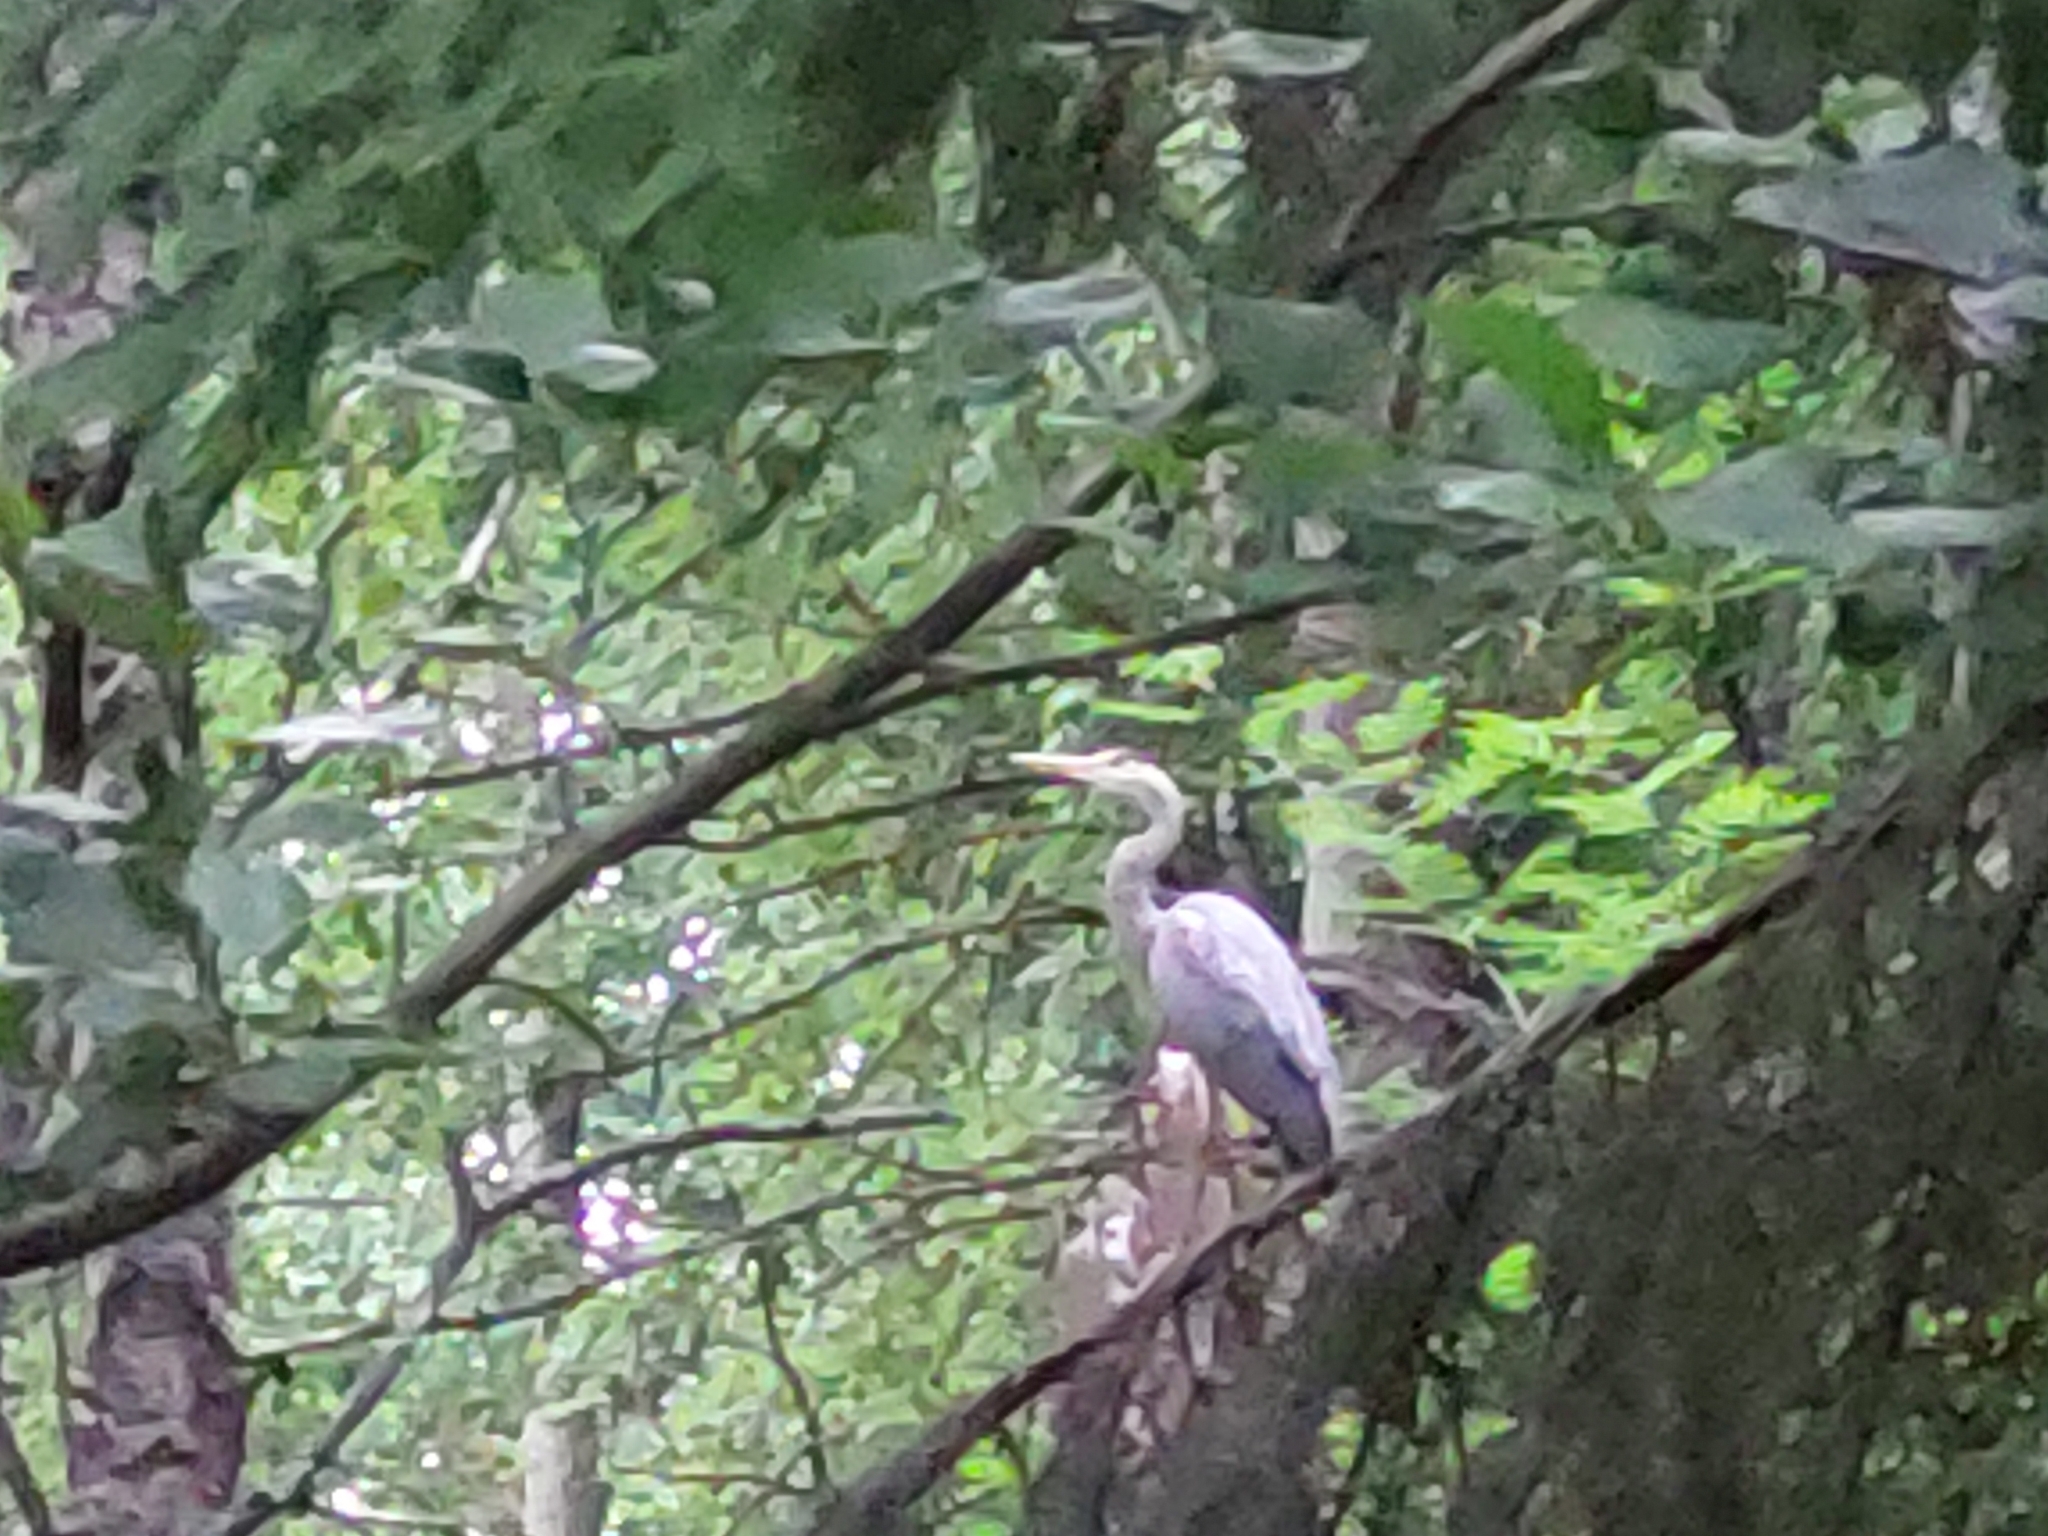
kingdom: Animalia
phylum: Chordata
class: Aves
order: Pelecaniformes
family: Ardeidae
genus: Ardea
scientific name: Ardea cinerea
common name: Grey heron
